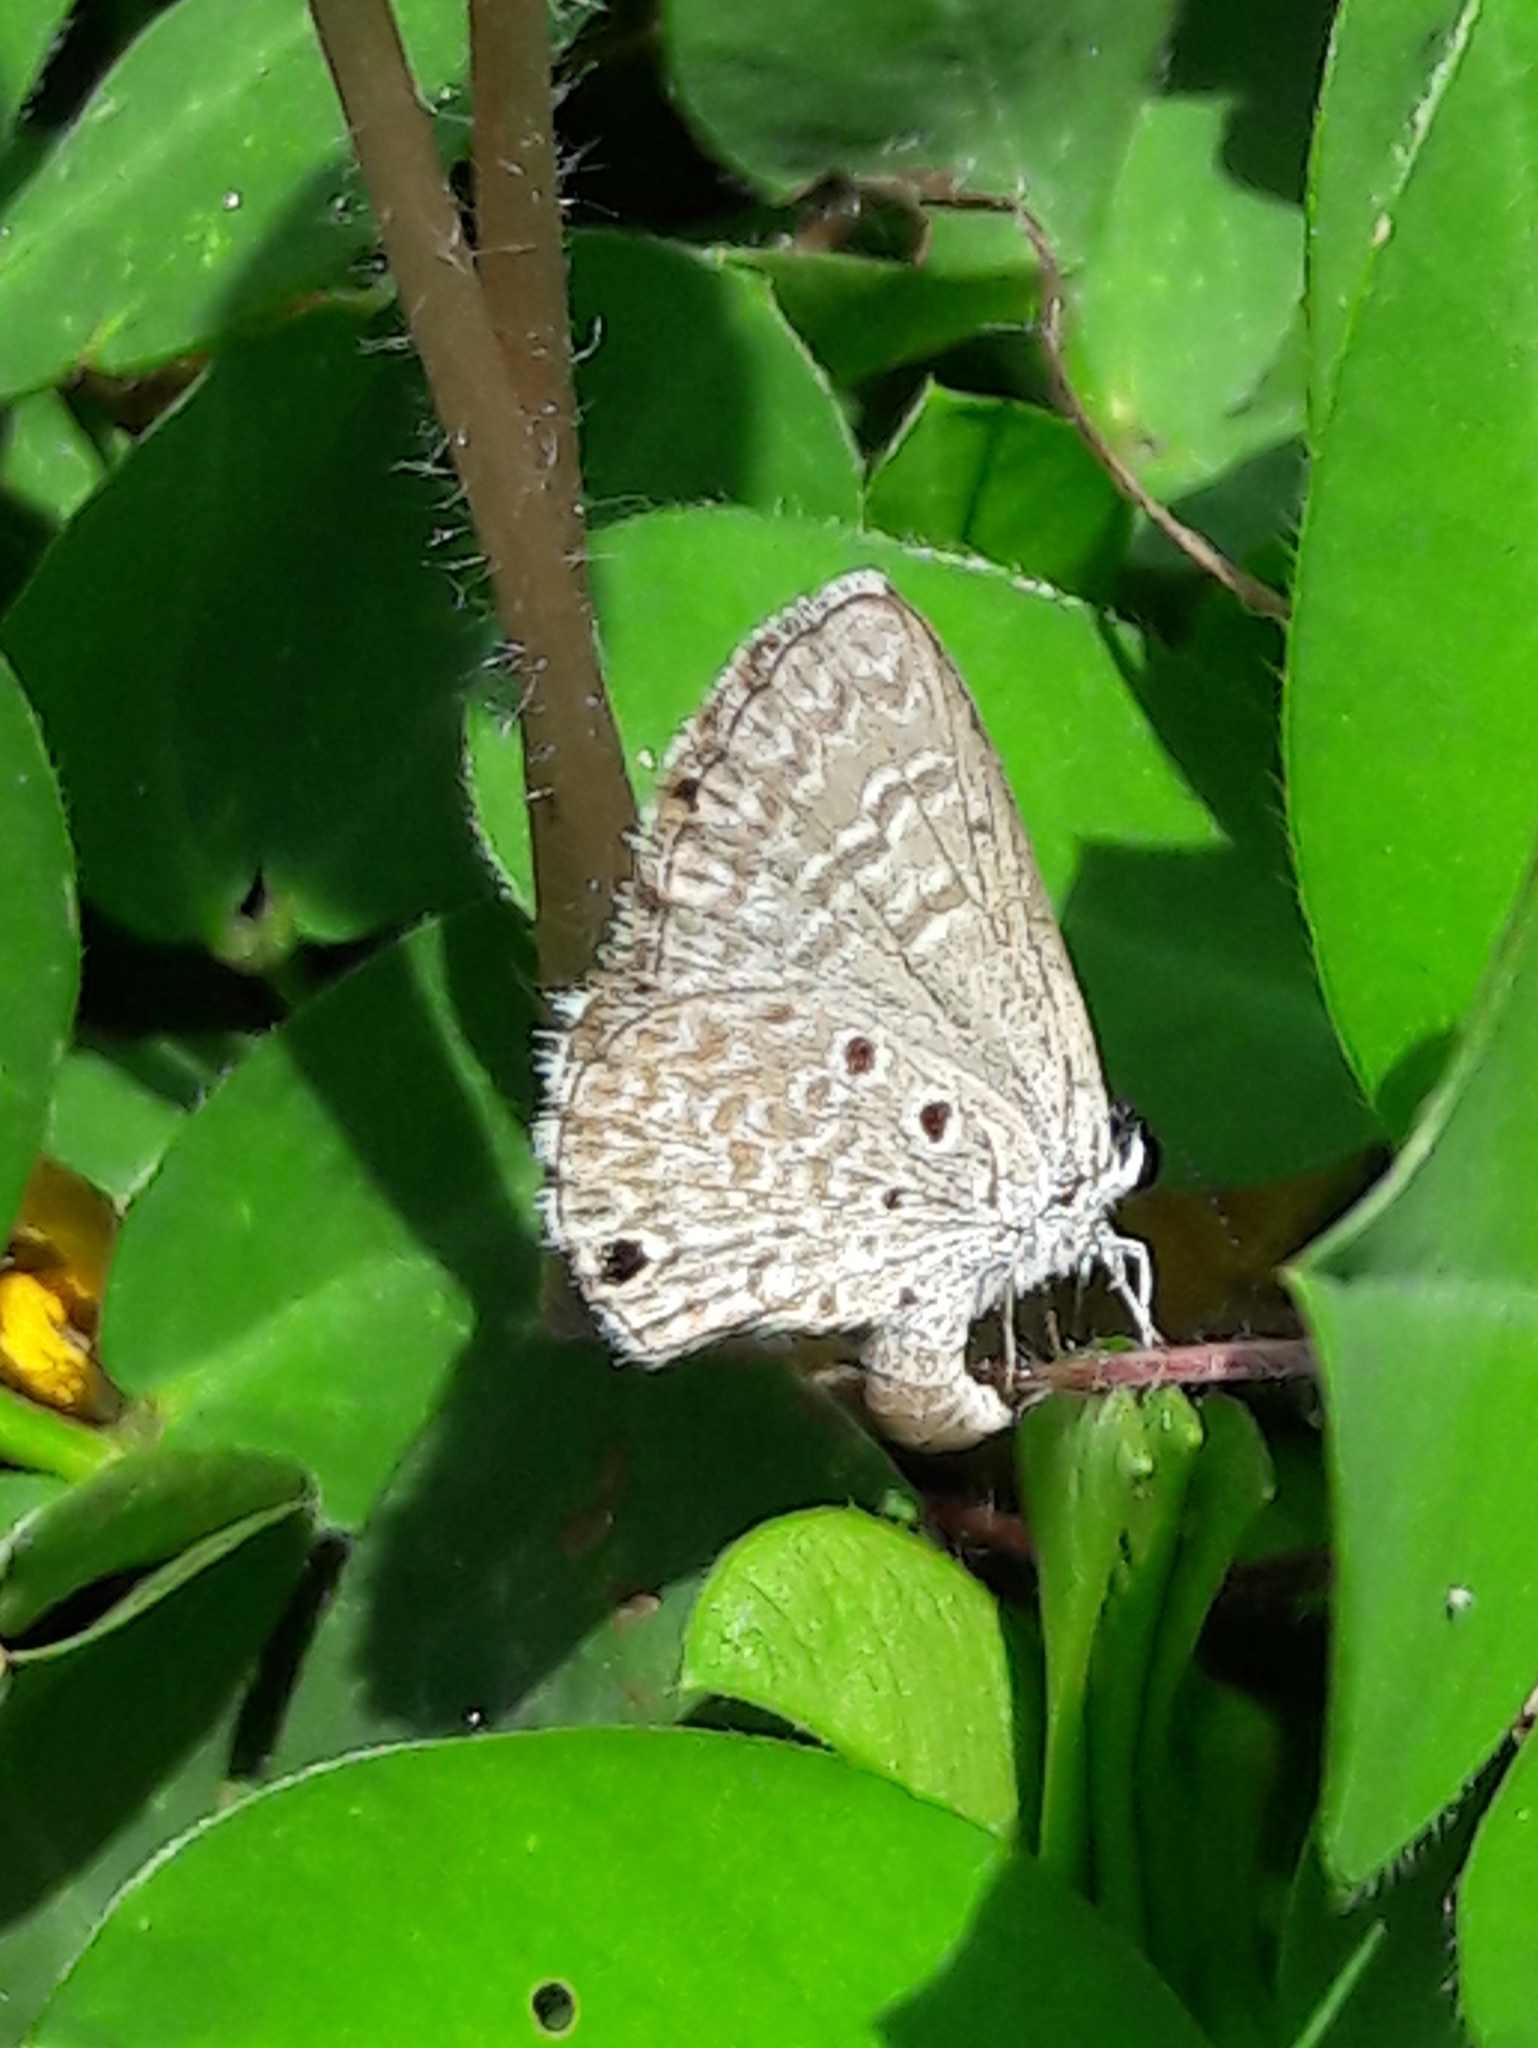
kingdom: Animalia
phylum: Arthropoda
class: Insecta
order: Lepidoptera
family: Lycaenidae
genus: Hemiargus
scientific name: Hemiargus hanno
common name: Common blue
